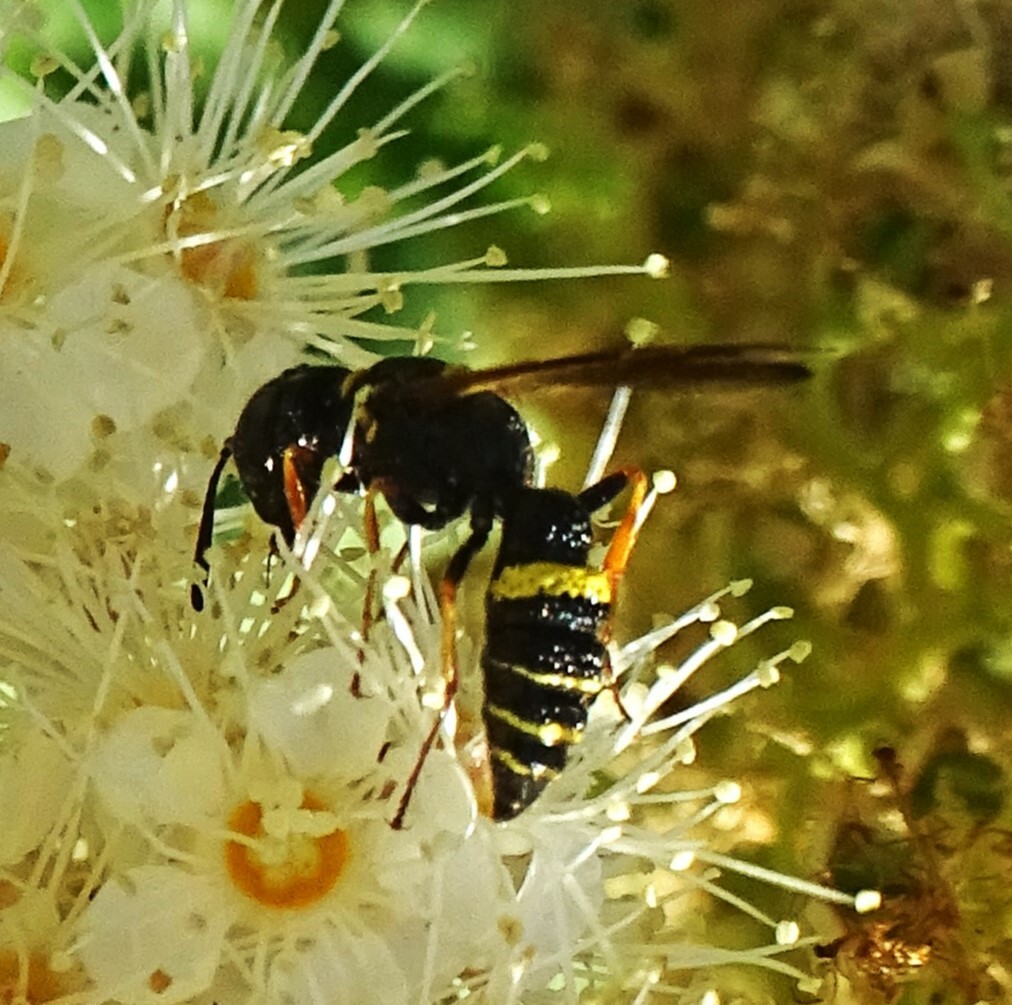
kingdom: Animalia
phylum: Arthropoda
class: Insecta
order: Hymenoptera
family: Crabronidae
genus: Philanthus
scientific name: Philanthus gibbosus
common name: Humped beewolf
